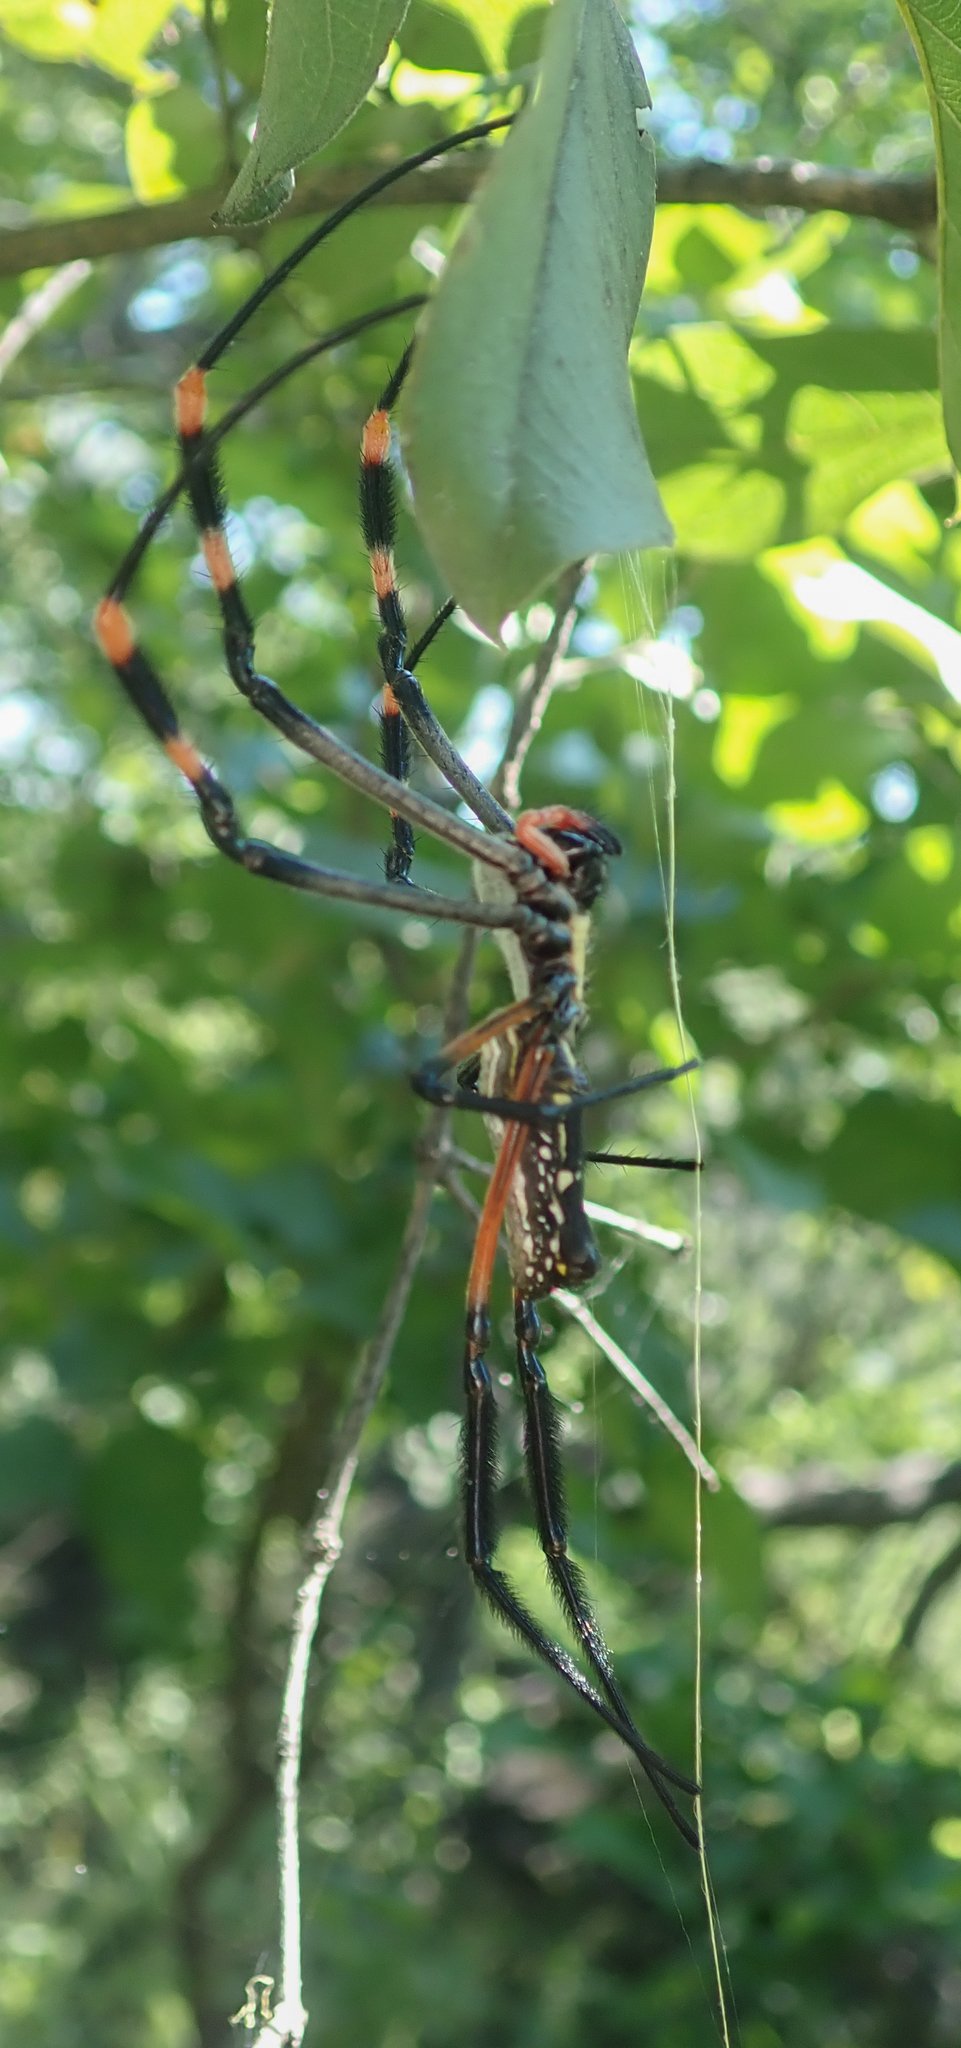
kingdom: Animalia
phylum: Arthropoda
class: Arachnida
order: Araneae
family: Araneidae
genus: Trichonephila
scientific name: Trichonephila senegalensis
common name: Banded golden orb weaver
